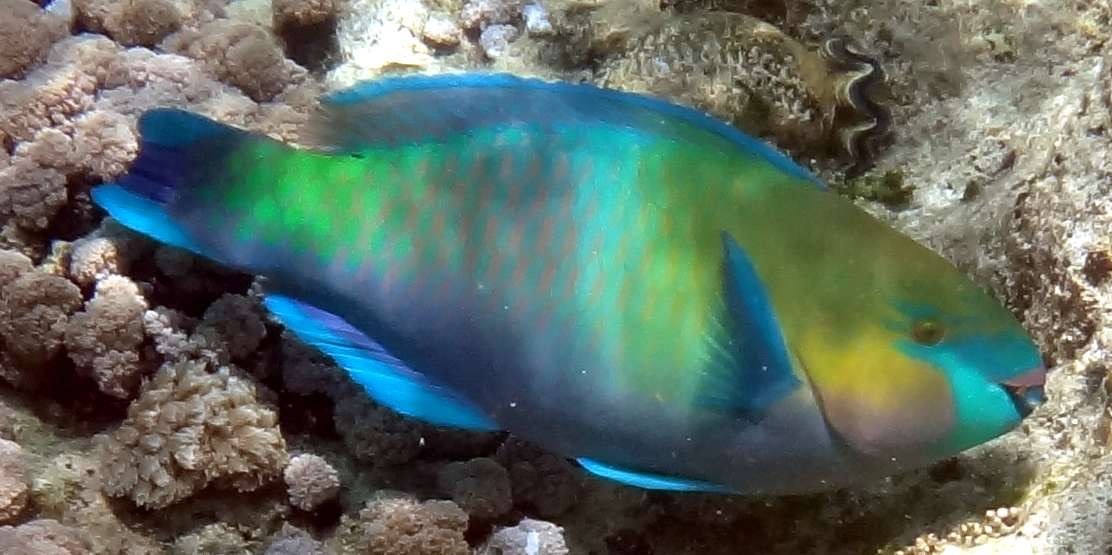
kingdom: Animalia
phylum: Chordata
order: Perciformes
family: Scaridae
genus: Scarus
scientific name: Scarus ferrugineus
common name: Rusty parrotfish
